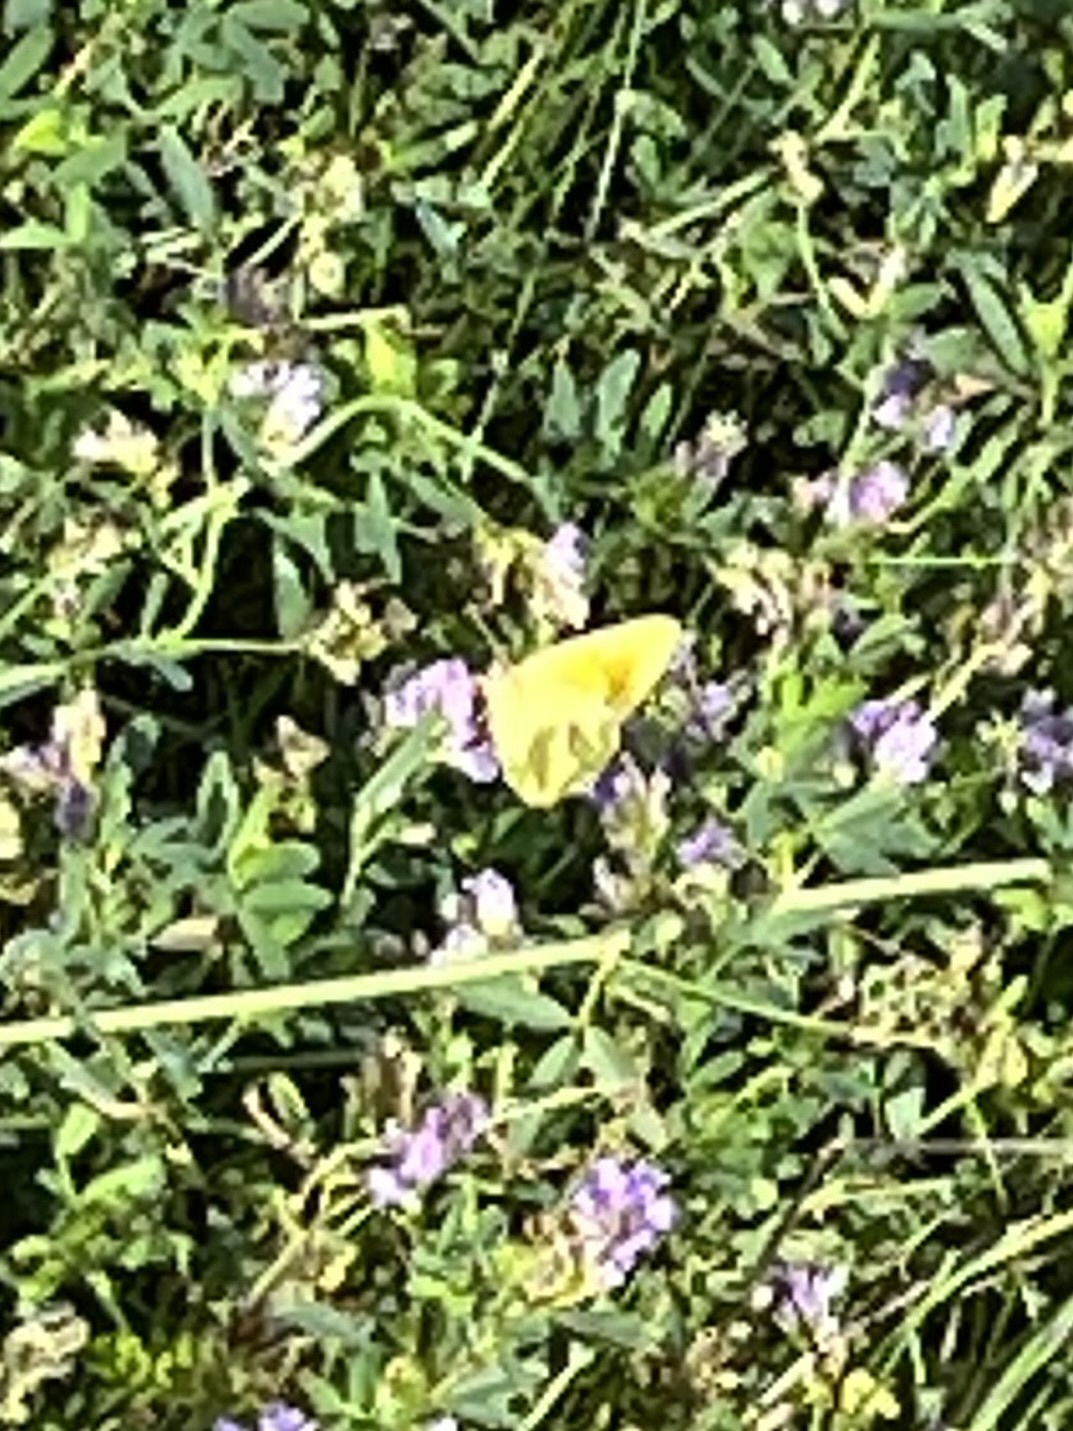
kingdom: Animalia
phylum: Arthropoda
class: Insecta
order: Lepidoptera
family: Pieridae
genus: Colias
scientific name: Colias croceus
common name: Clouded yellow
